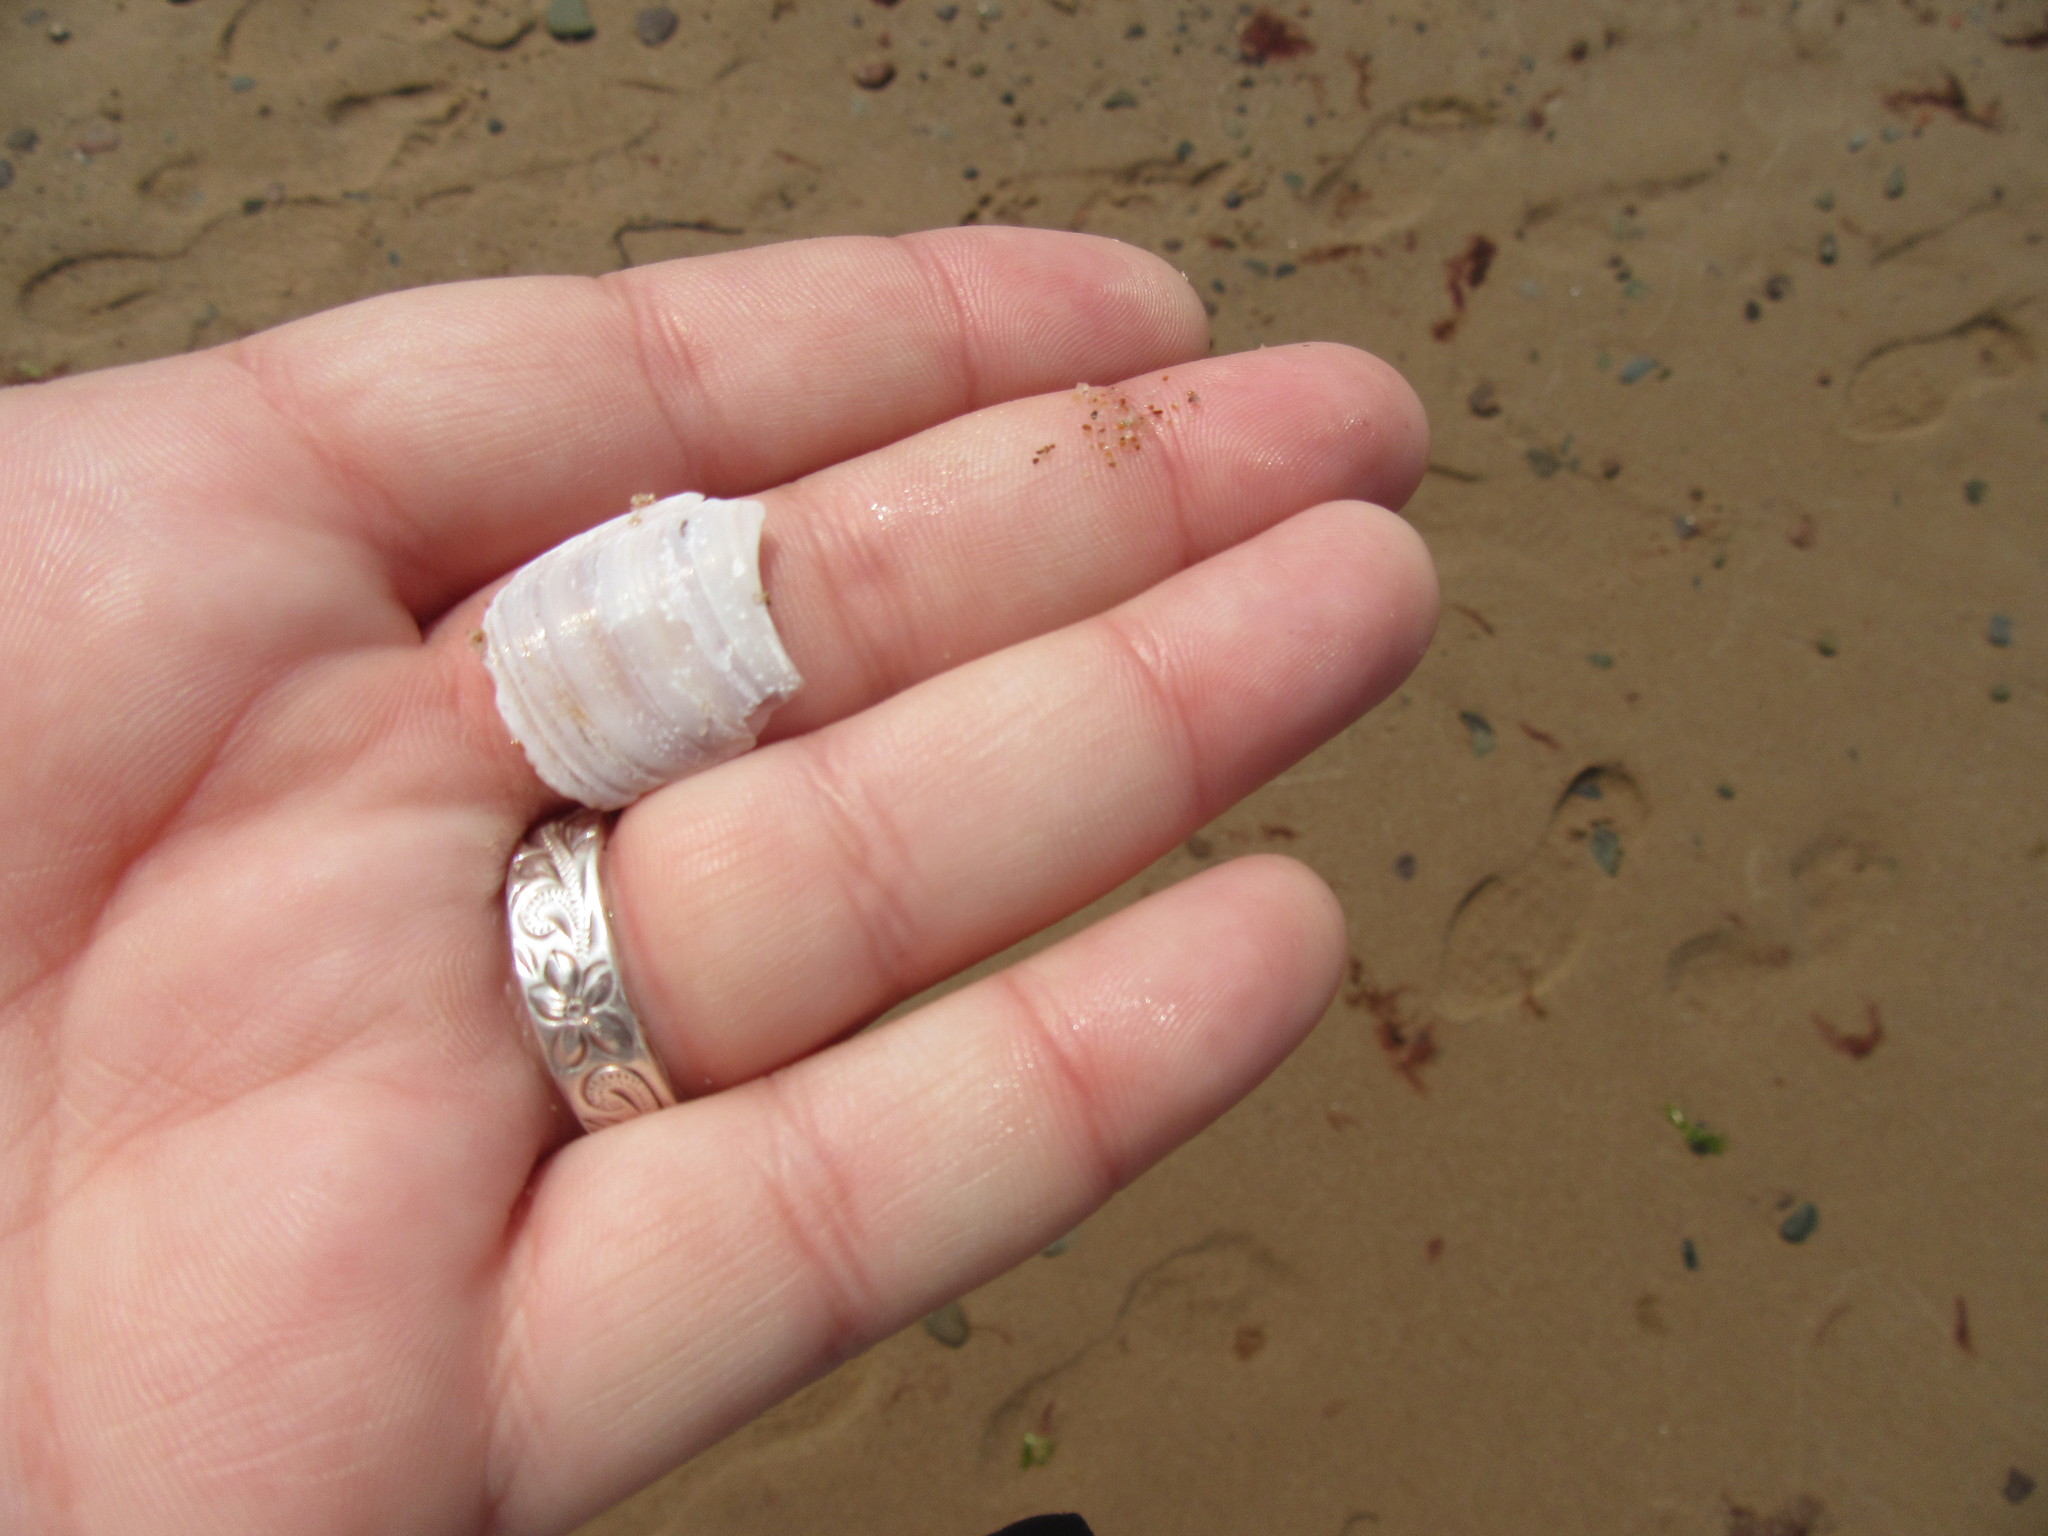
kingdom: Animalia
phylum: Mollusca
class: Bivalvia
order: Adapedonta
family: Pharidae
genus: Ensis
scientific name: Ensis leei
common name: American jack knife clam
